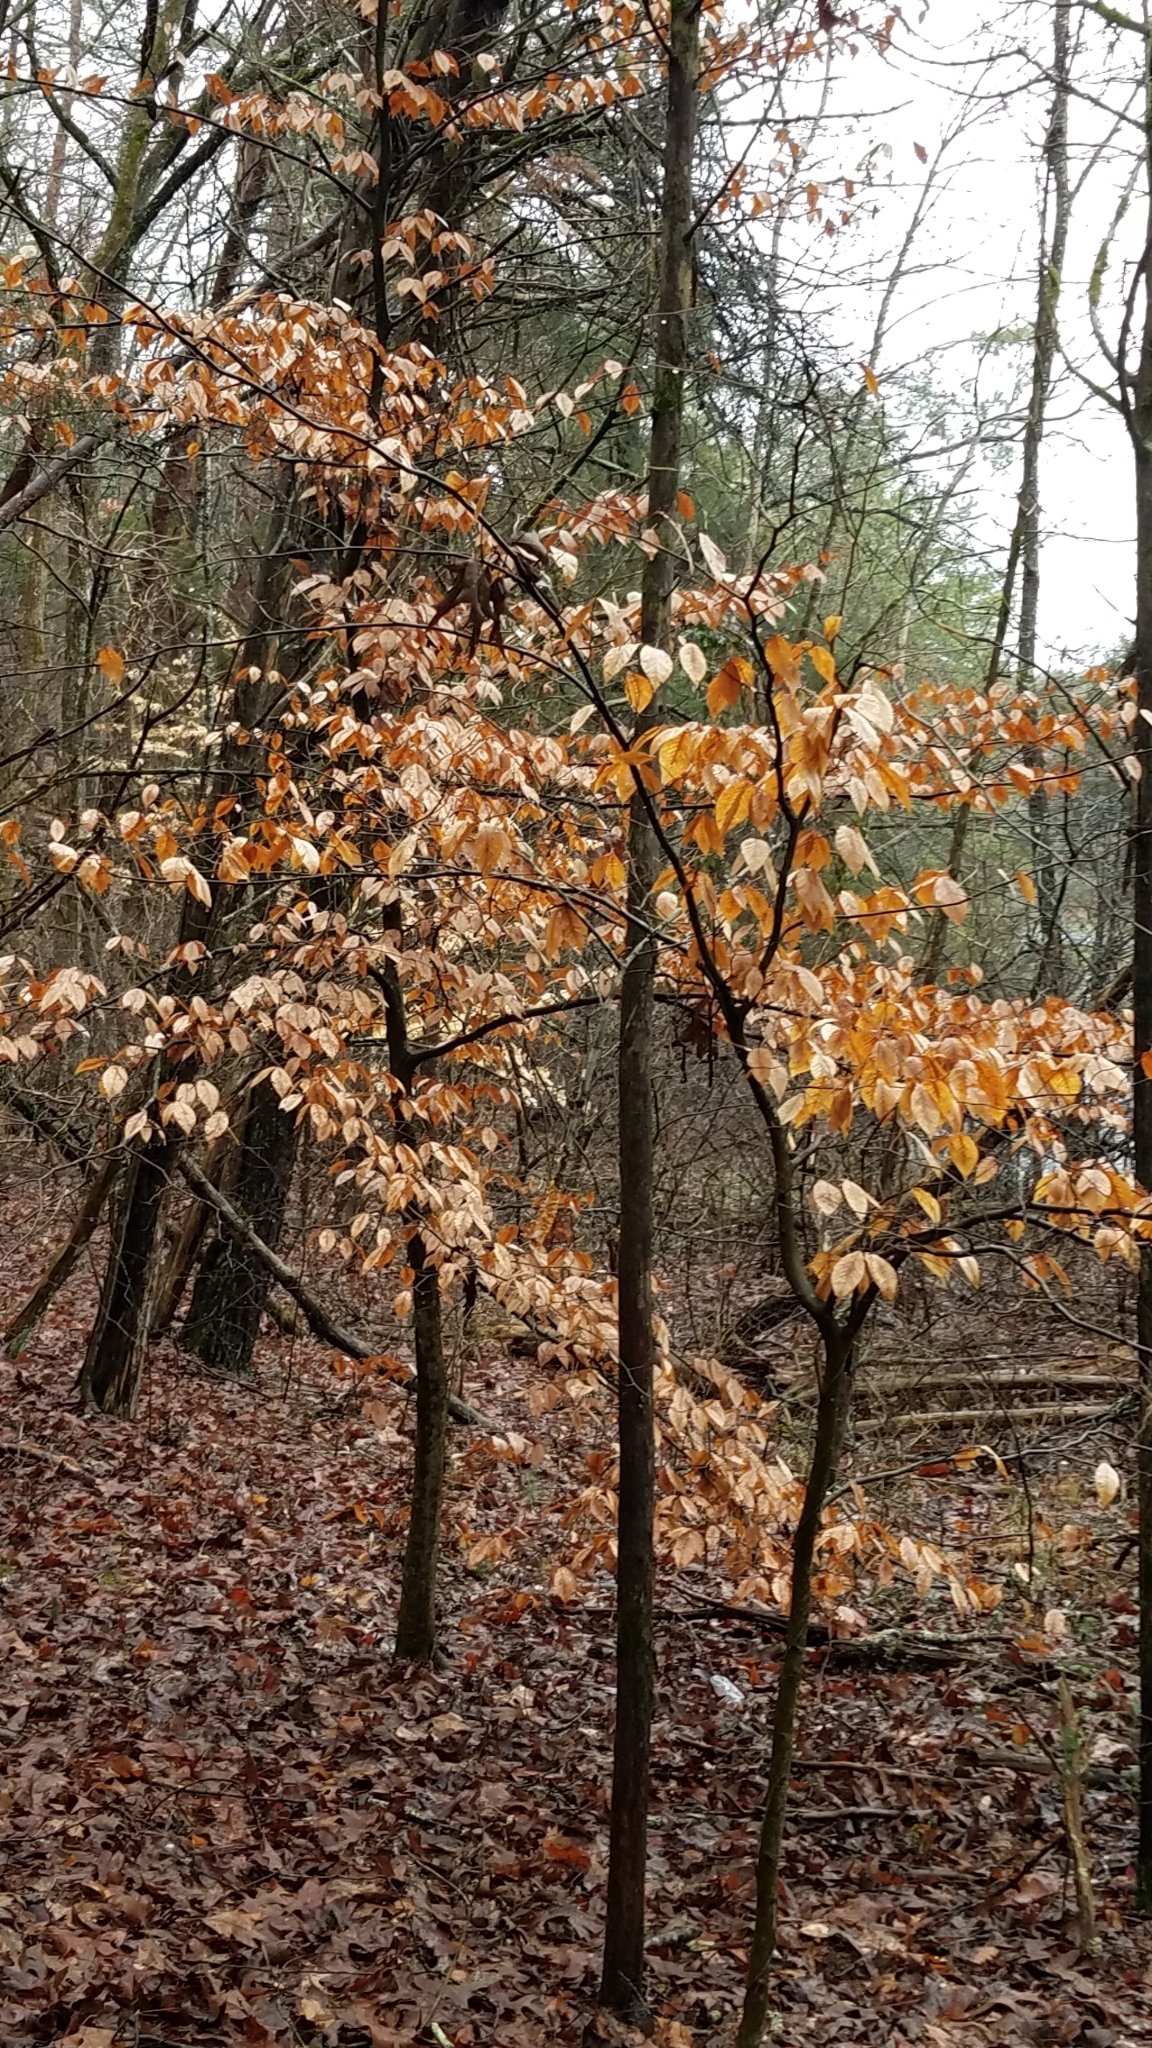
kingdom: Plantae
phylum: Tracheophyta
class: Magnoliopsida
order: Fagales
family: Fagaceae
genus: Fagus
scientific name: Fagus grandifolia
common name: American beech
